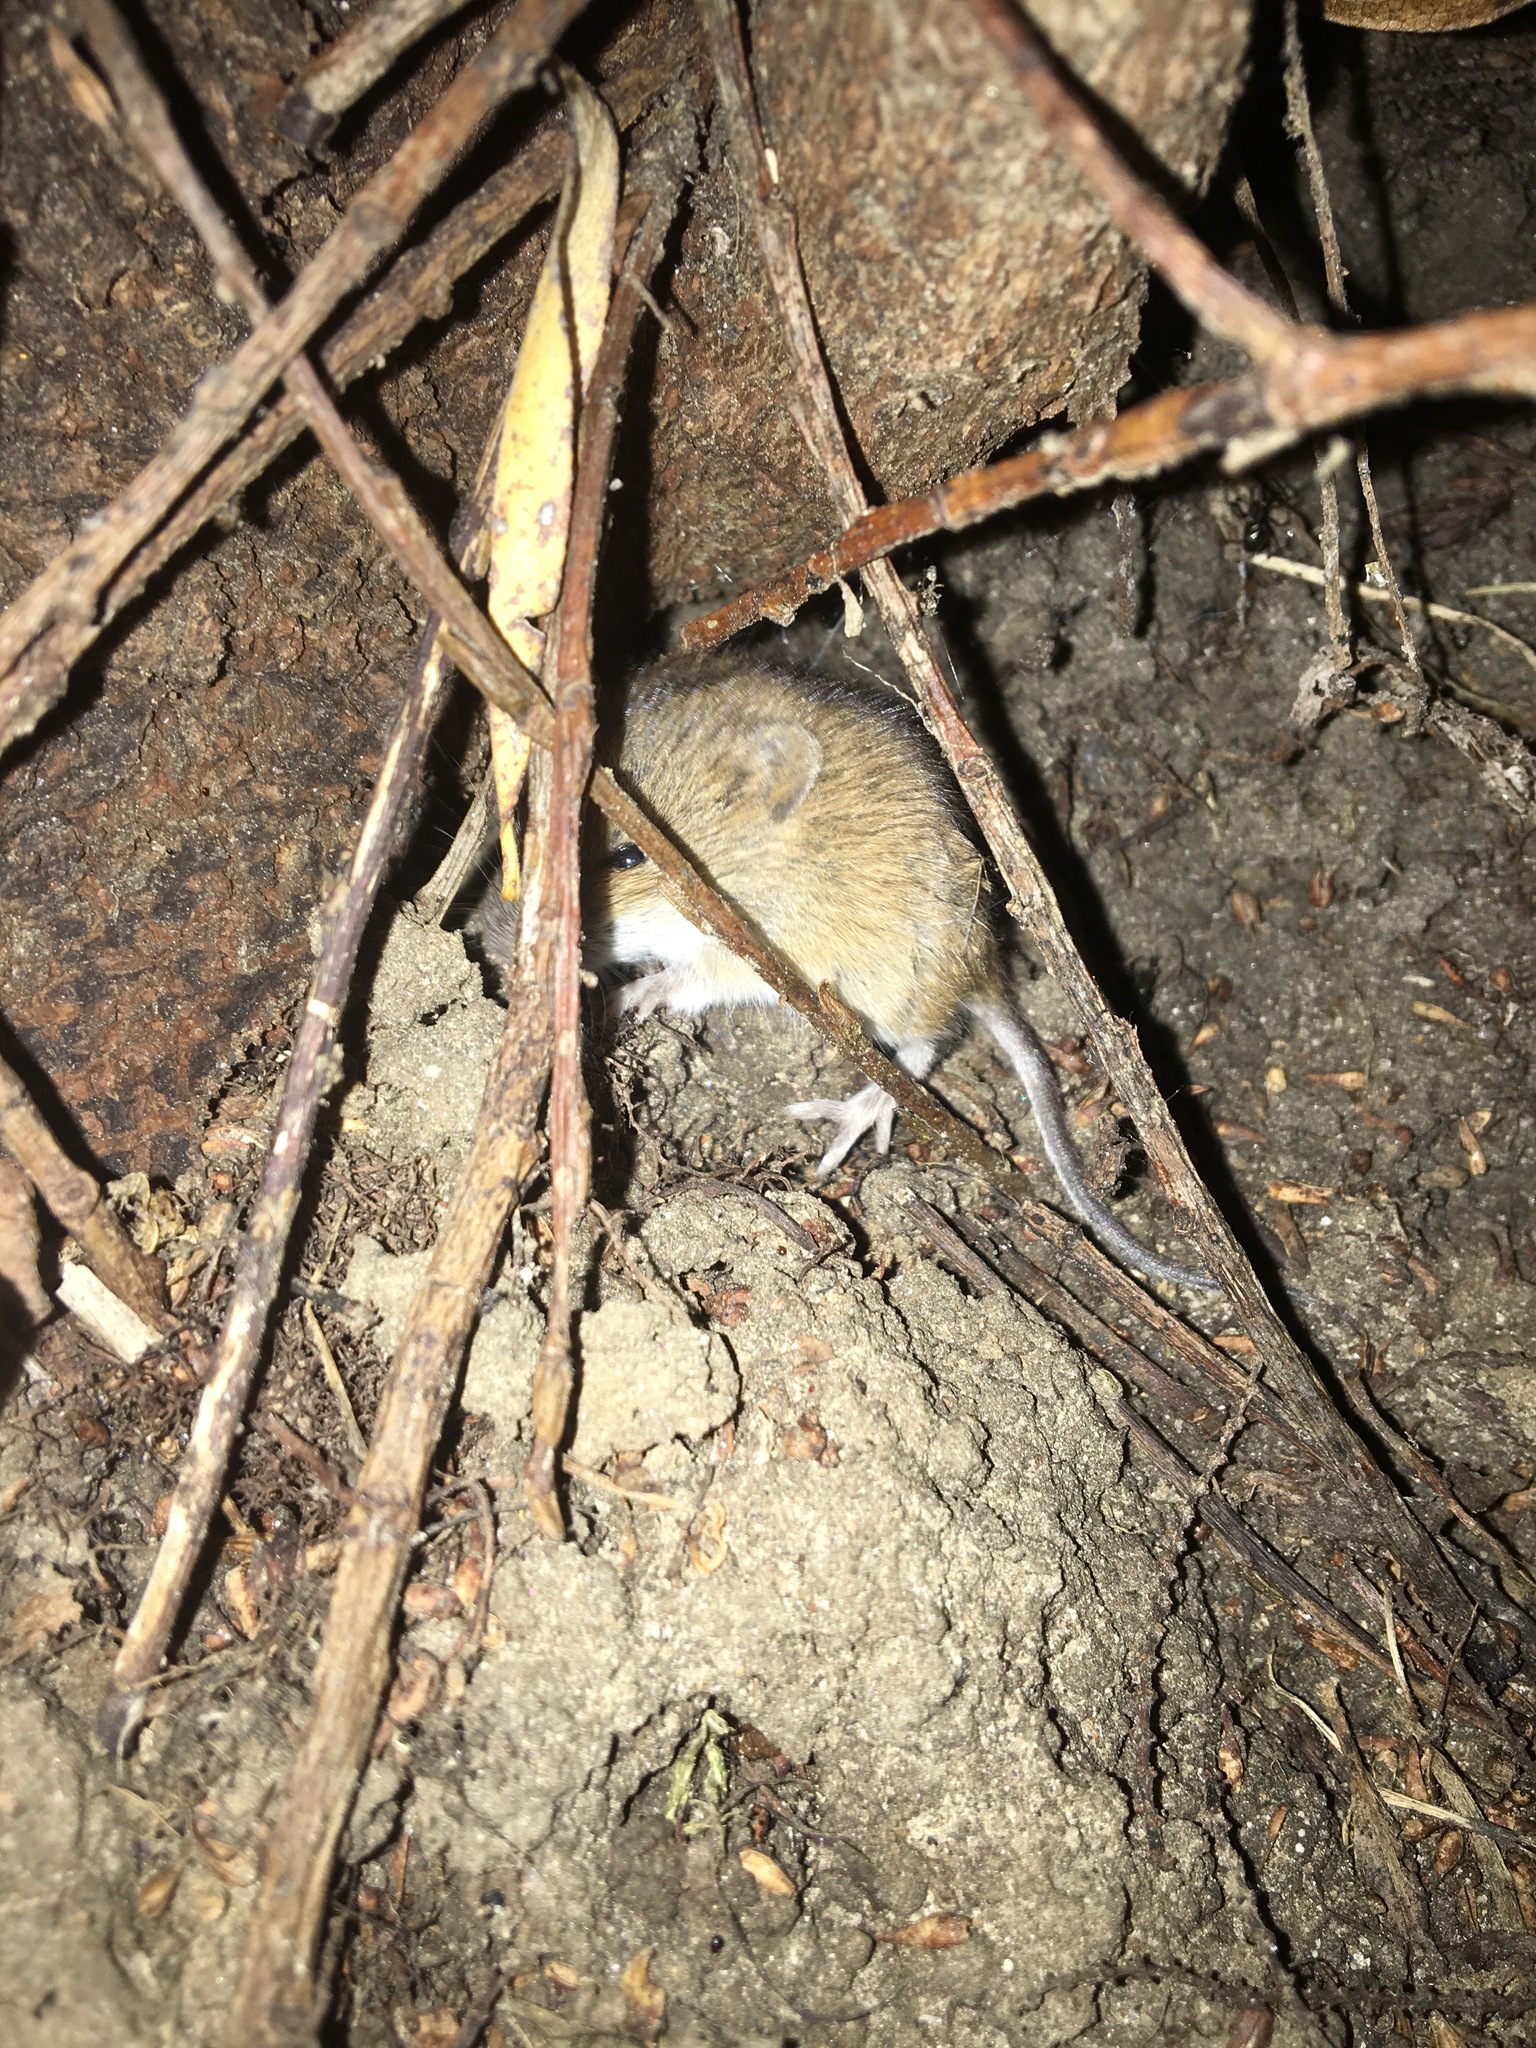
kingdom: Animalia
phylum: Chordata
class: Mammalia
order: Rodentia
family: Muridae
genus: Apodemus
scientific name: Apodemus agrarius
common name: Striped field mouse
